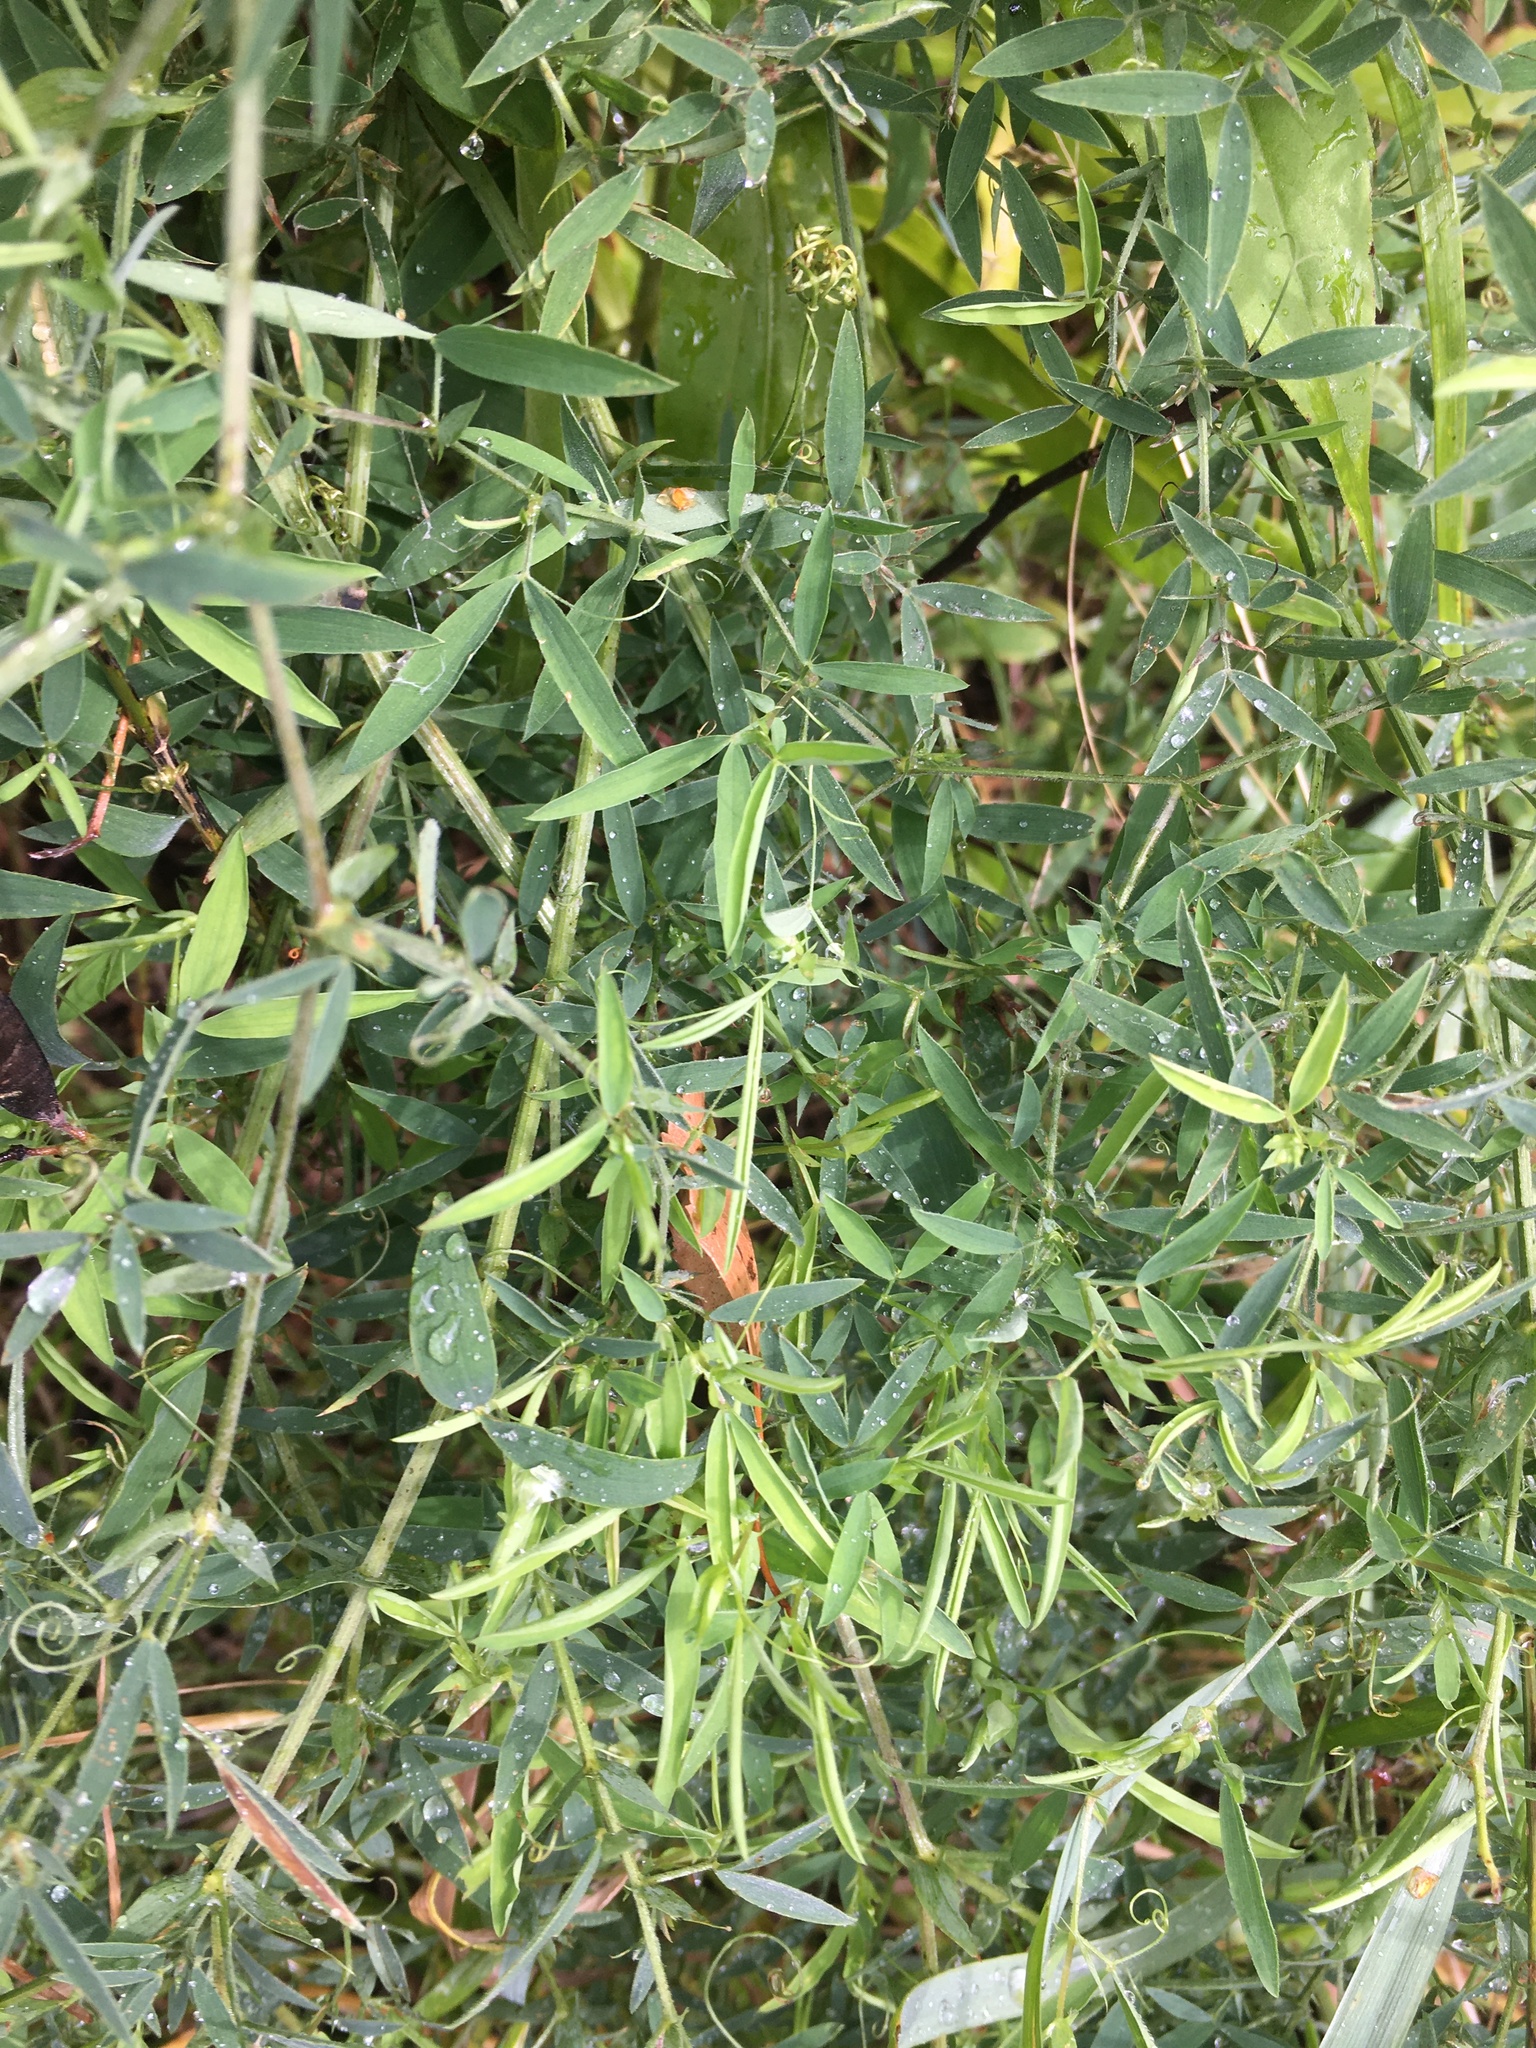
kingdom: Plantae
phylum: Tracheophyta
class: Magnoliopsida
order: Fabales
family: Fabaceae
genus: Lathyrus
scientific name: Lathyrus pratensis
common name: Meadow vetchling
